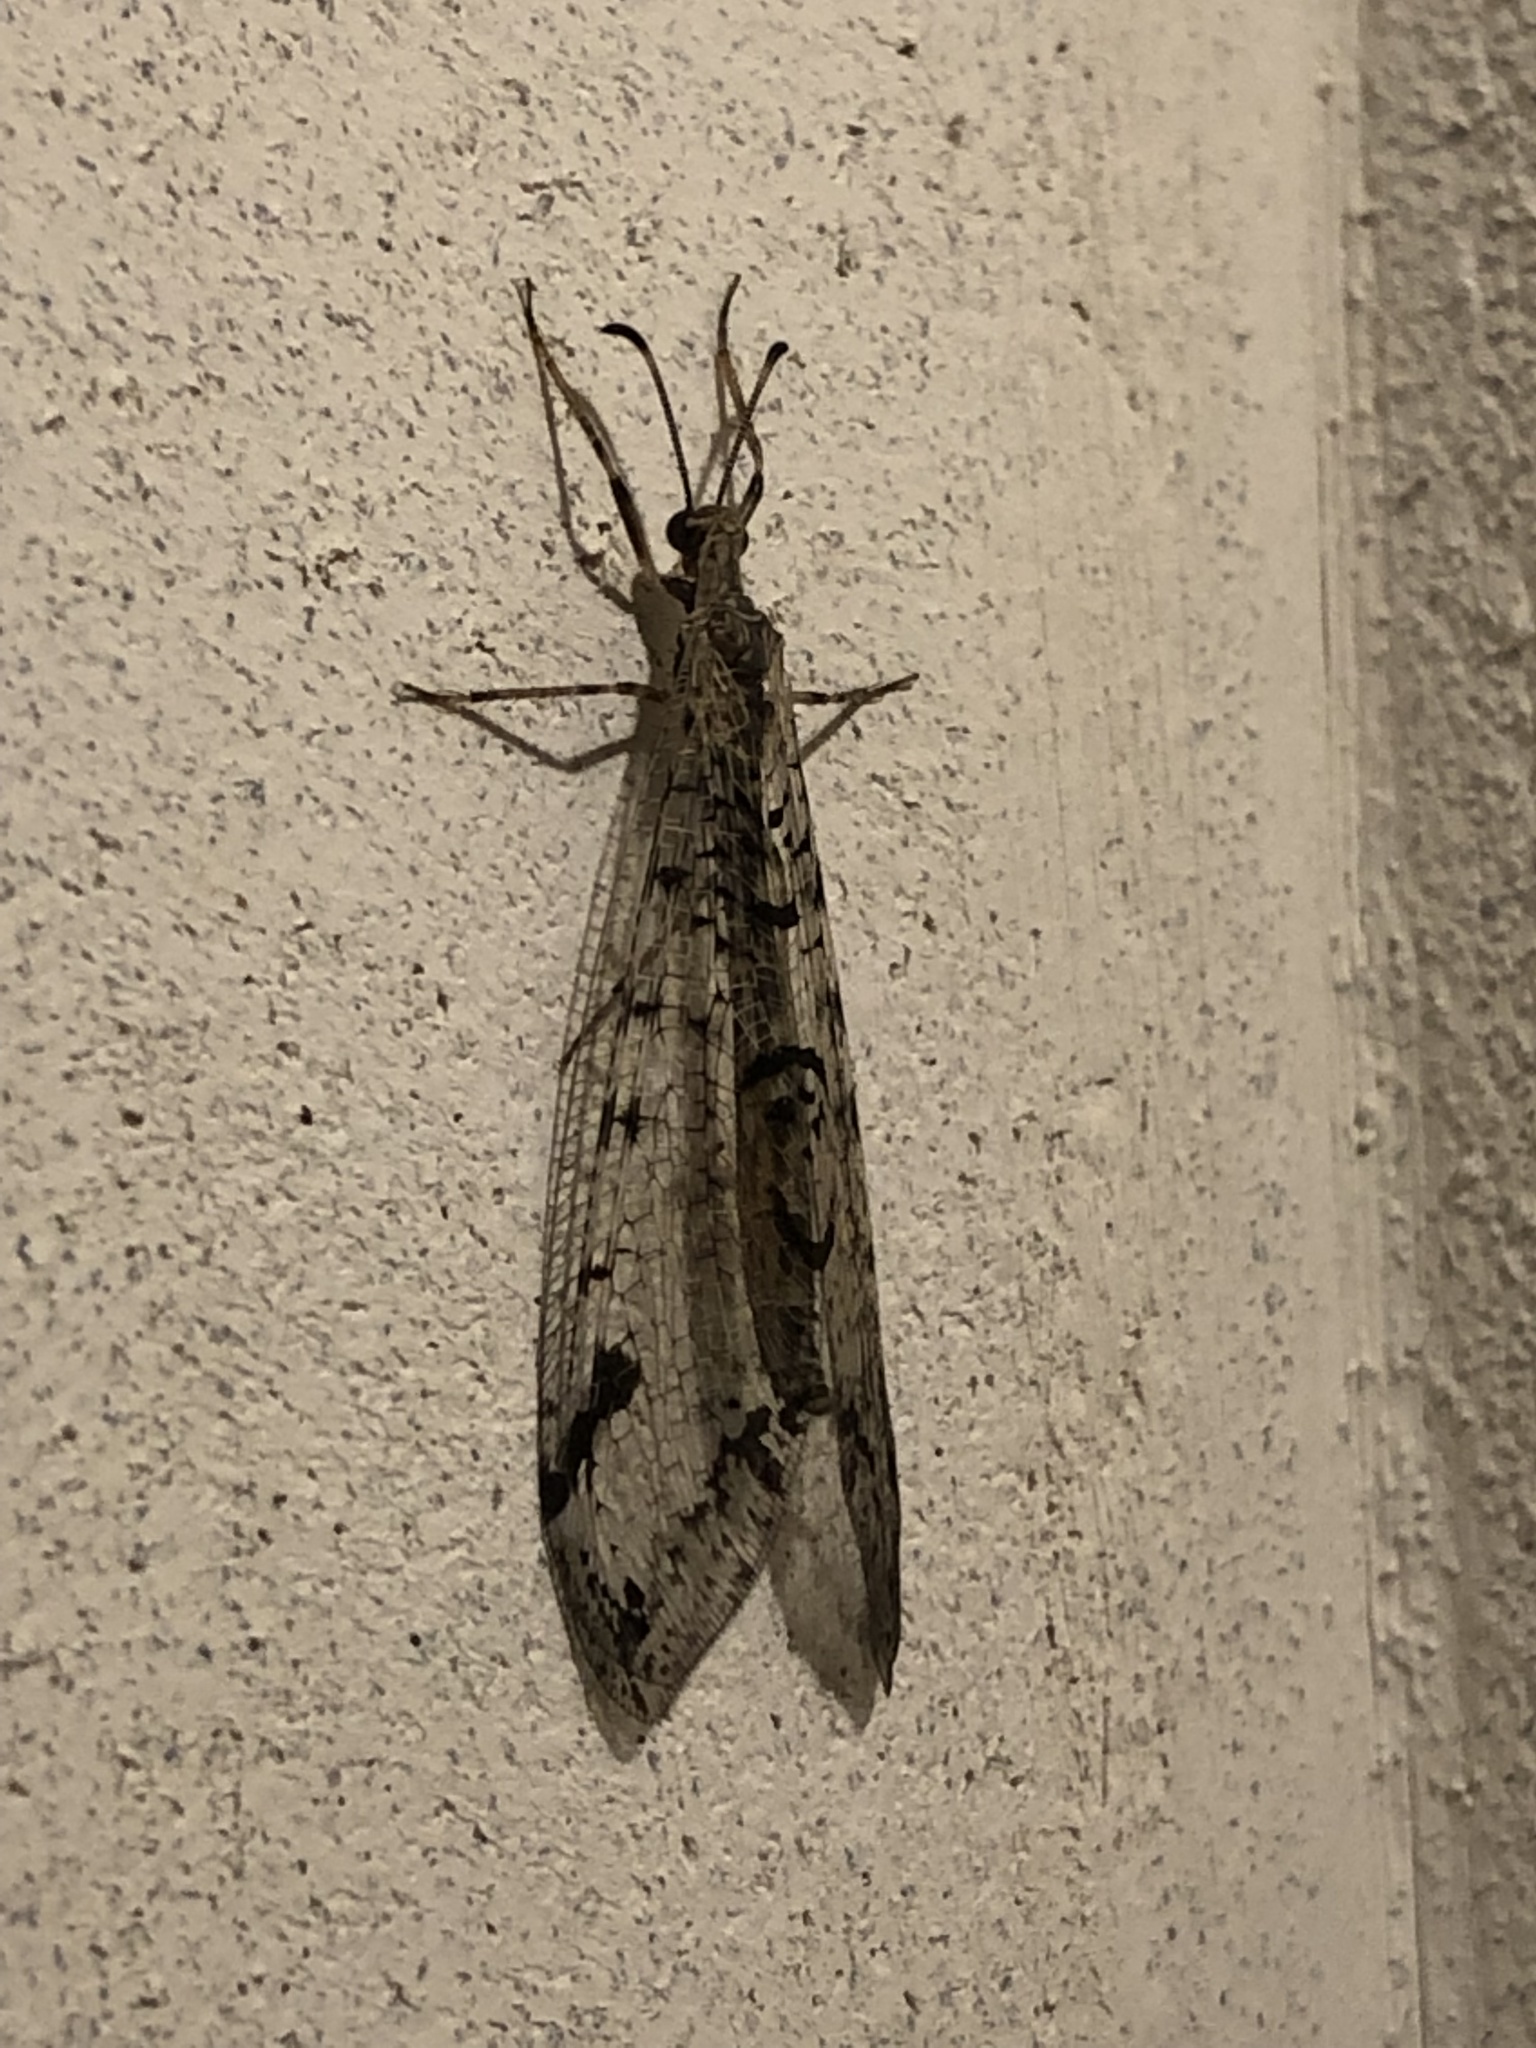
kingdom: Animalia
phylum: Arthropoda
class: Insecta
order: Neuroptera
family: Myrmeleontidae
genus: Dendroleon
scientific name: Dendroleon speciosus
